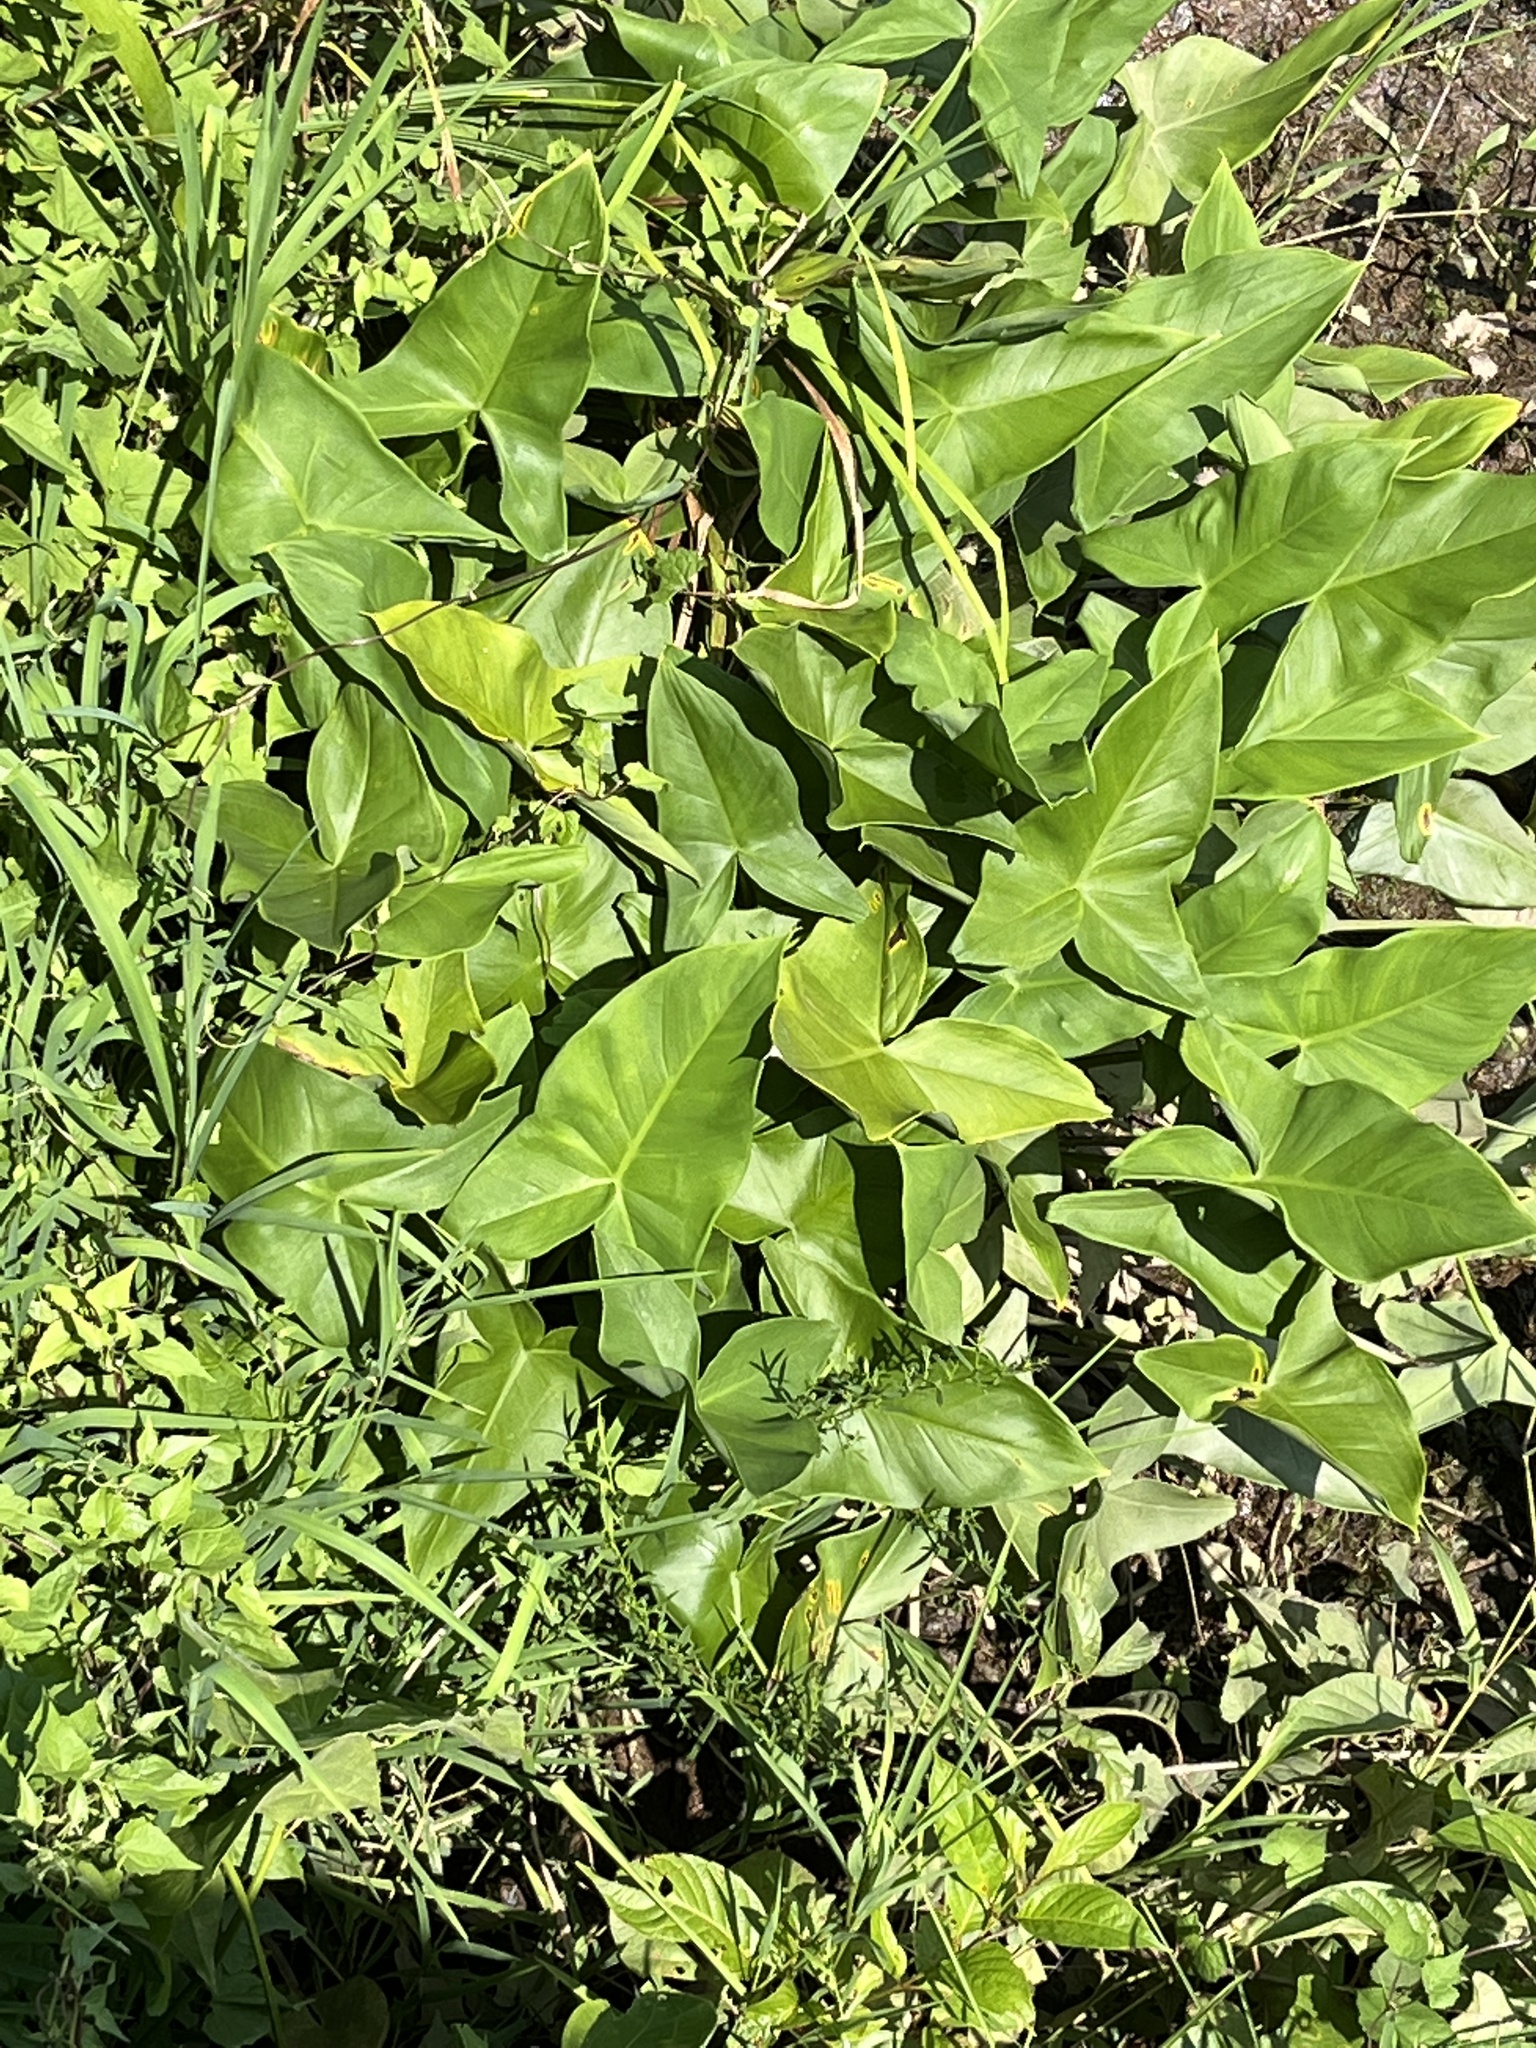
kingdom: Plantae
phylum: Tracheophyta
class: Liliopsida
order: Alismatales
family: Araceae
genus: Peltandra
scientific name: Peltandra virginica
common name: Arrow arum
